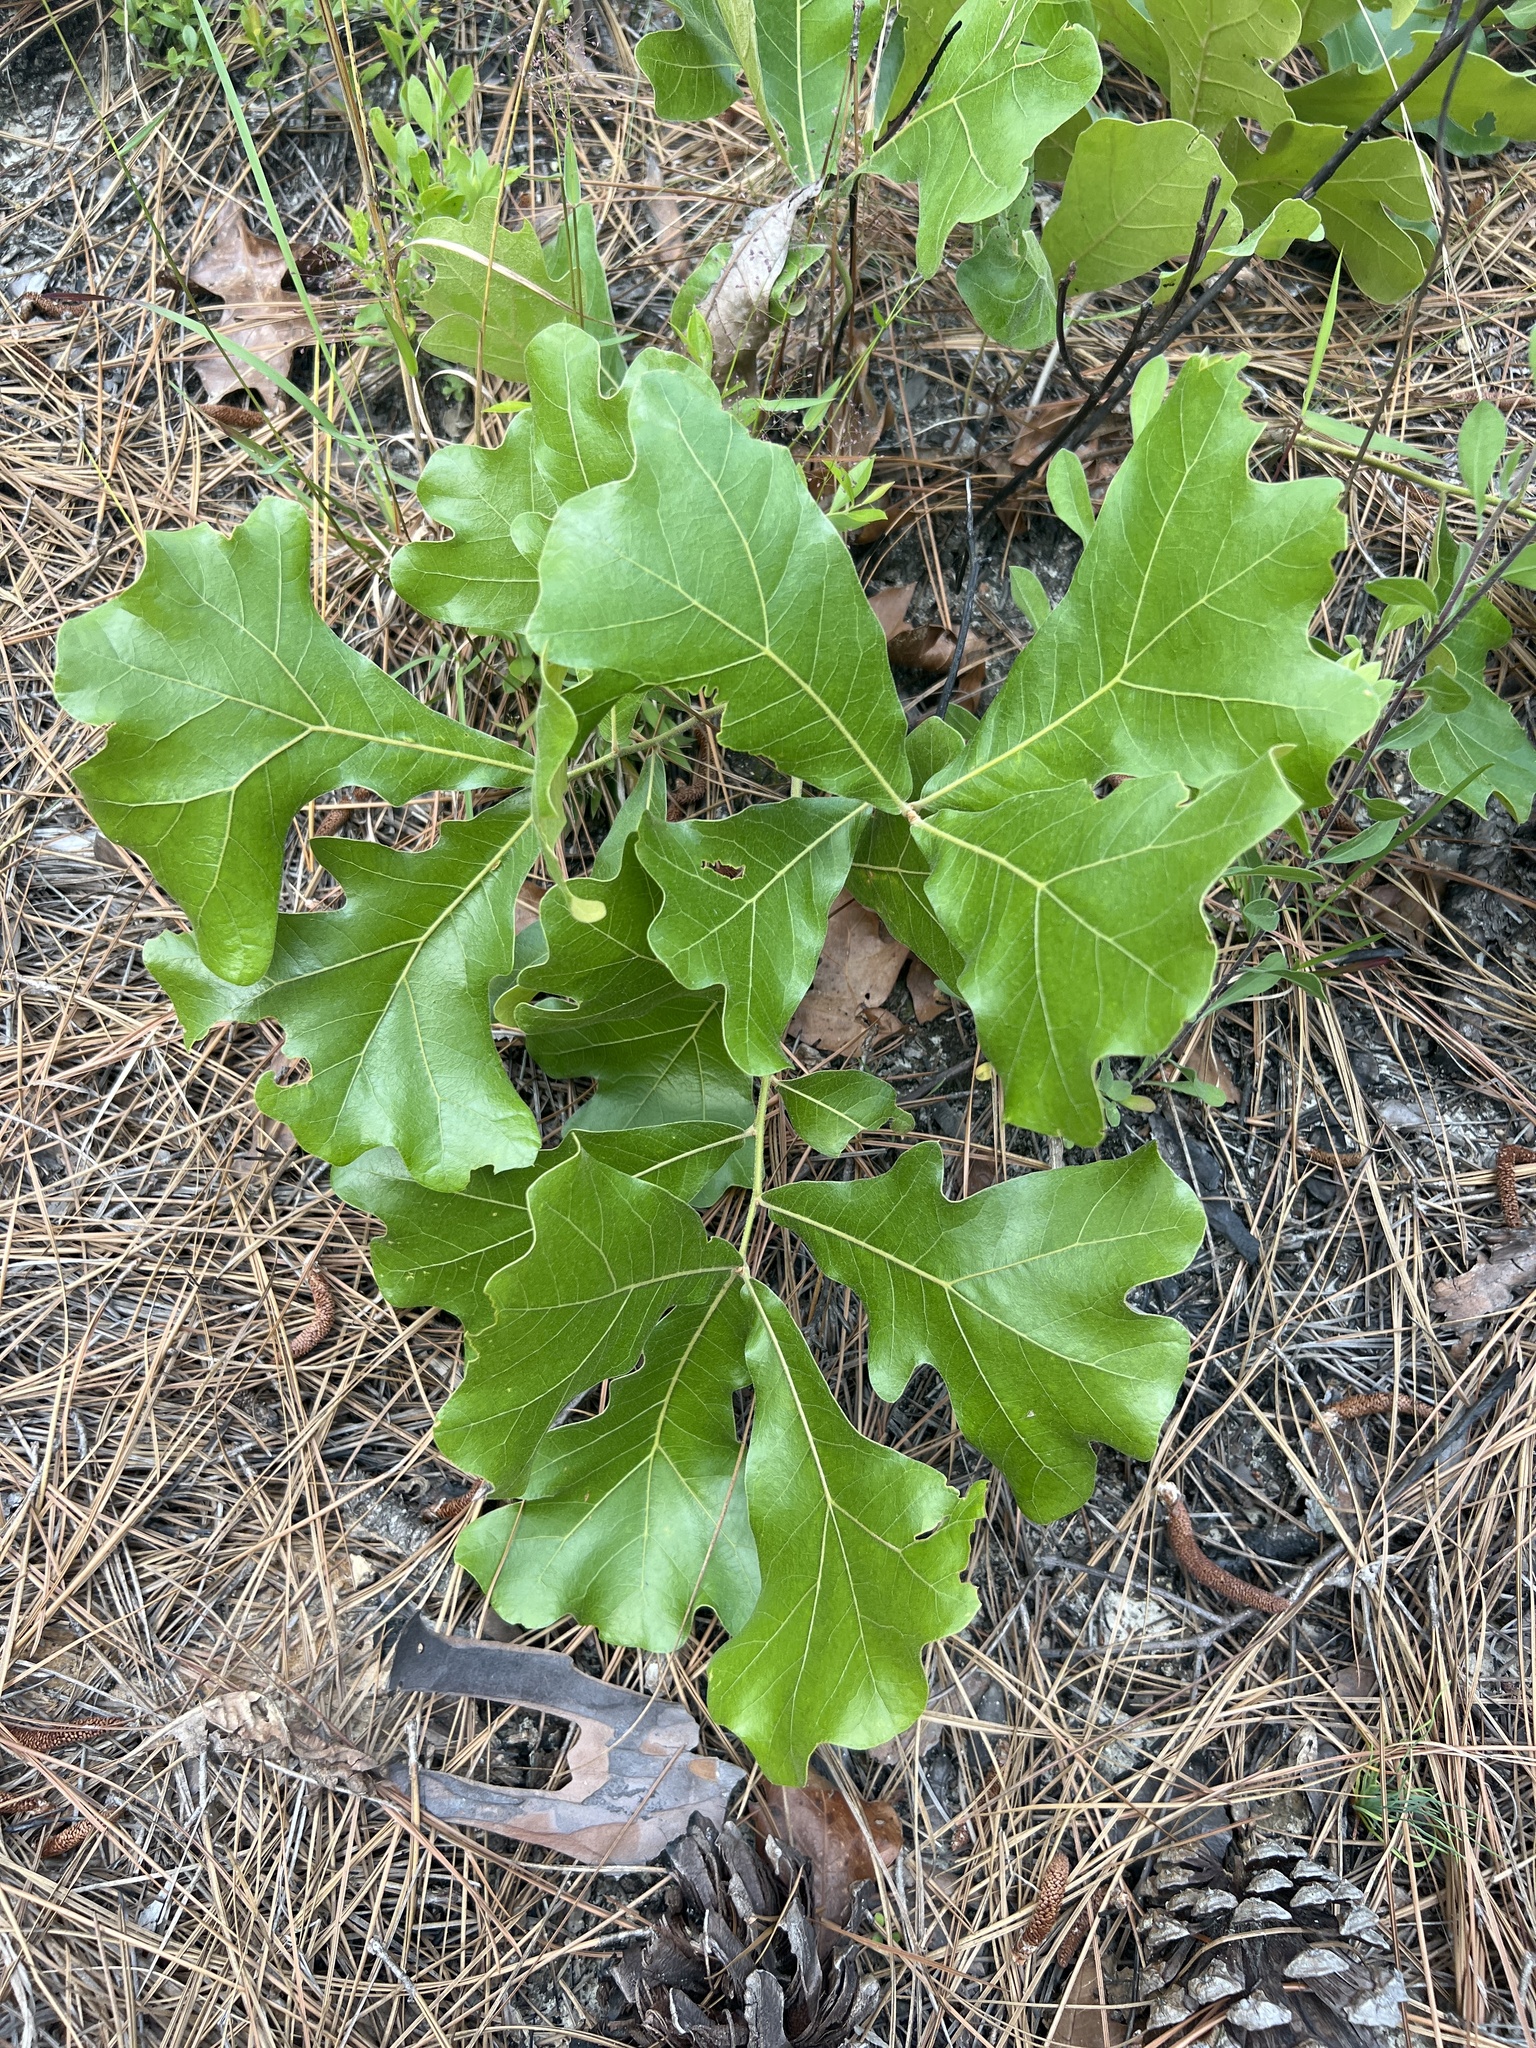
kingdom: Plantae
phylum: Tracheophyta
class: Magnoliopsida
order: Fagales
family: Fagaceae
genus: Quercus
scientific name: Quercus marilandica
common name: Blackjack oak
